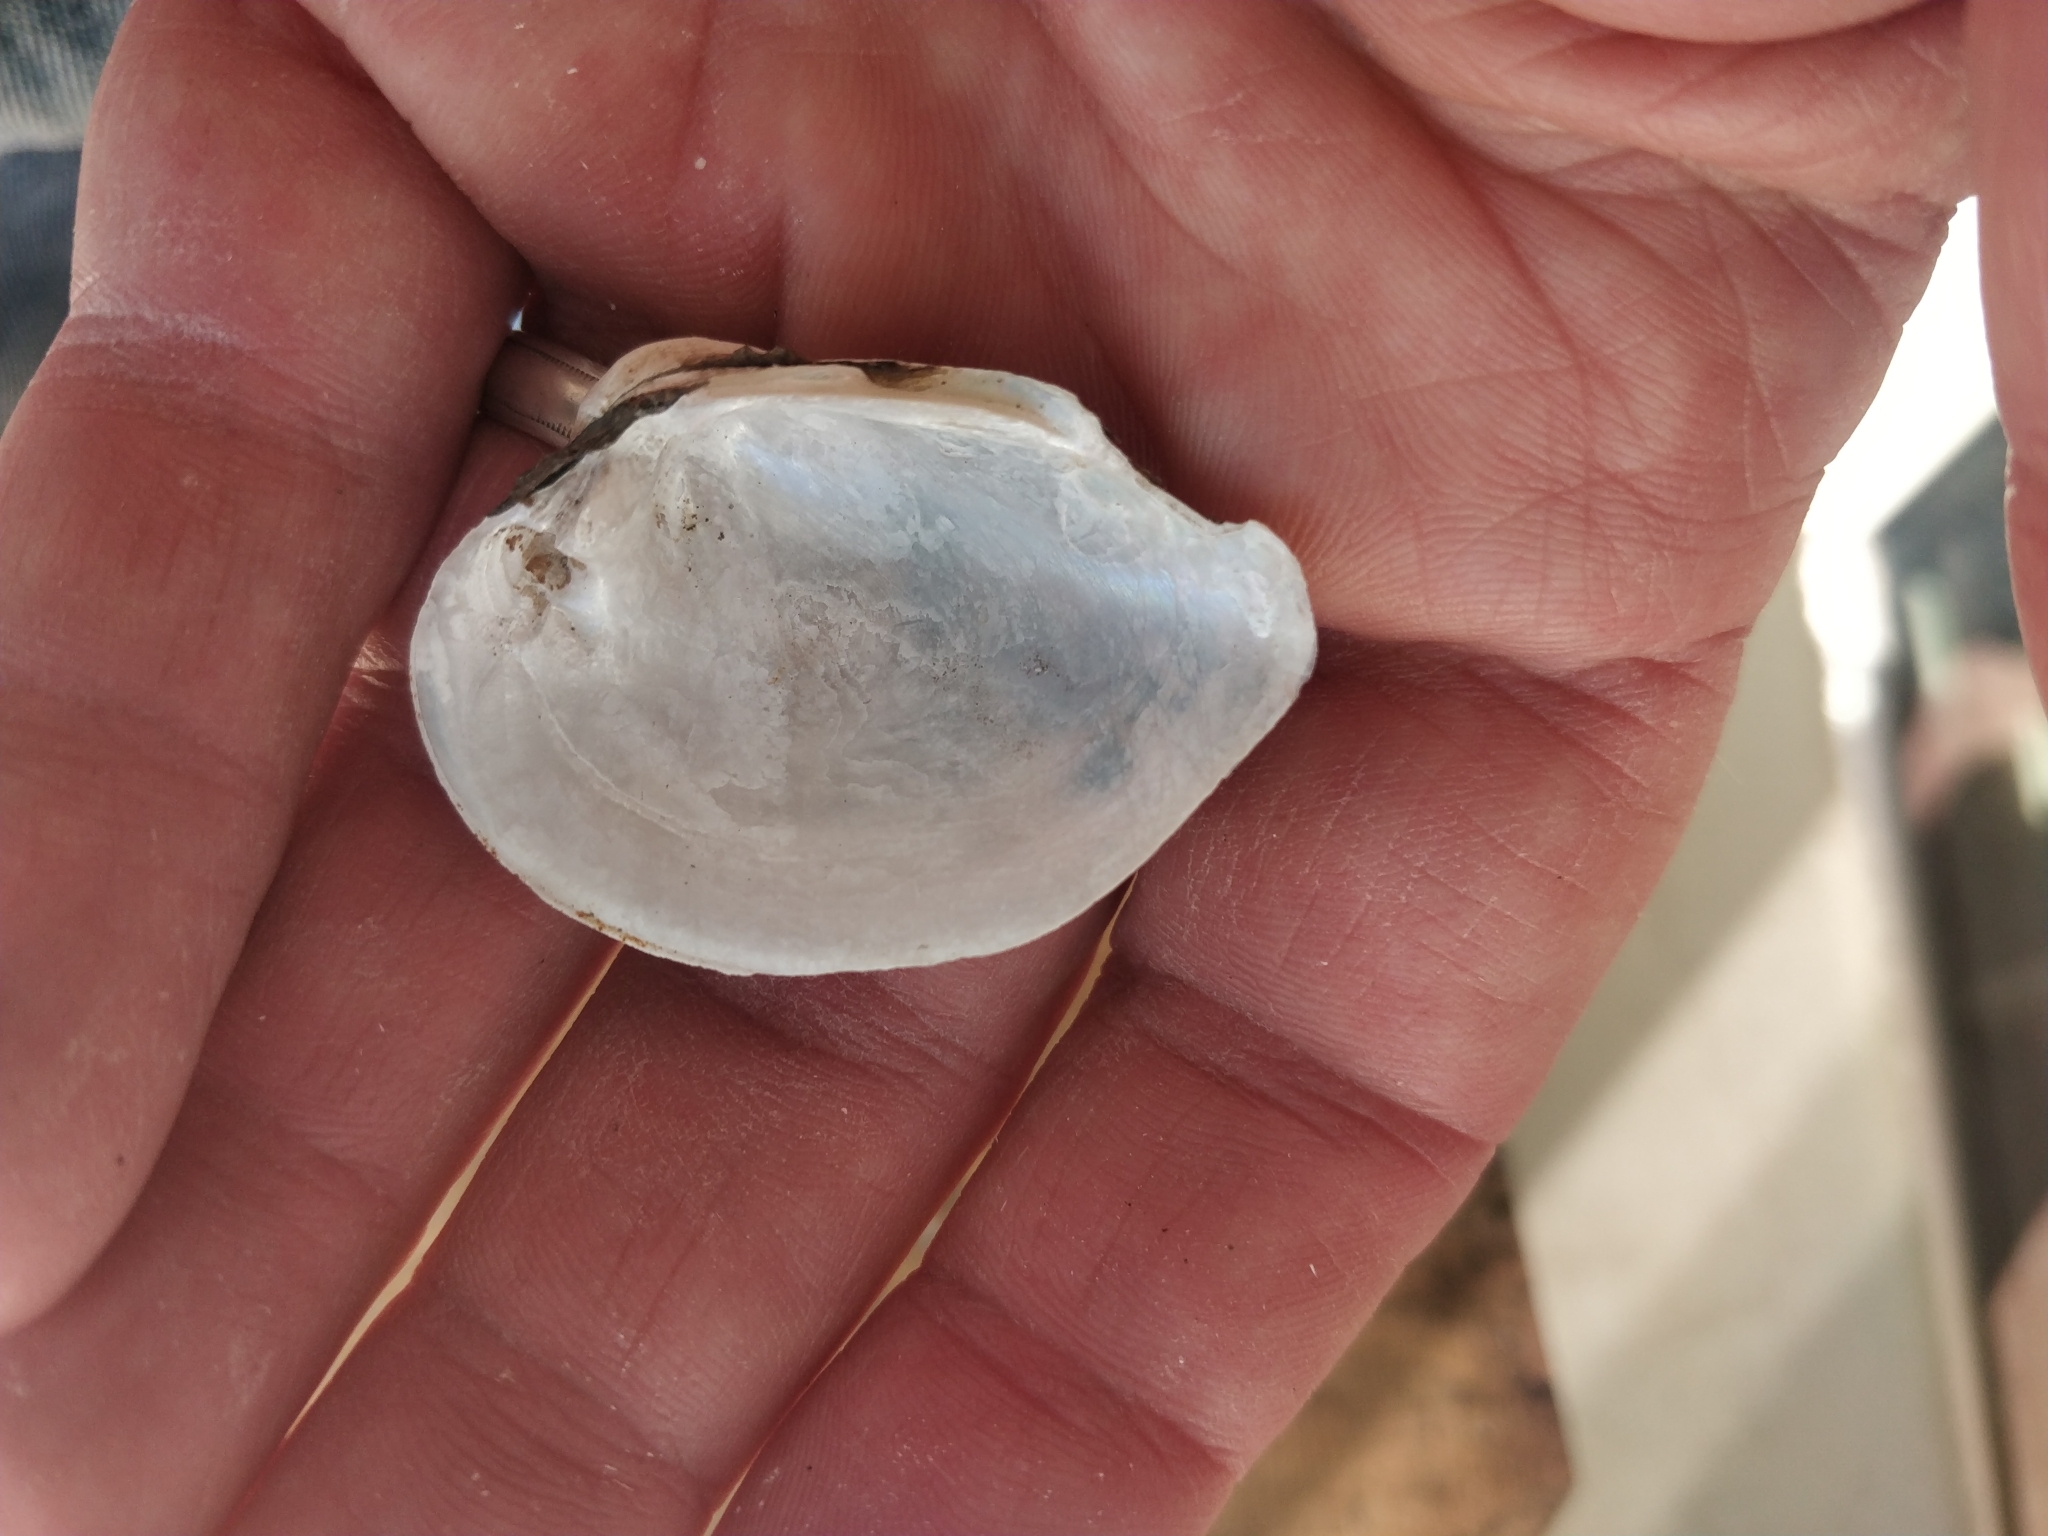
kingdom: Animalia
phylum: Mollusca
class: Bivalvia
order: Unionida
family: Unionidae
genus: Truncilla
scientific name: Truncilla truncata
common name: Deertoe
